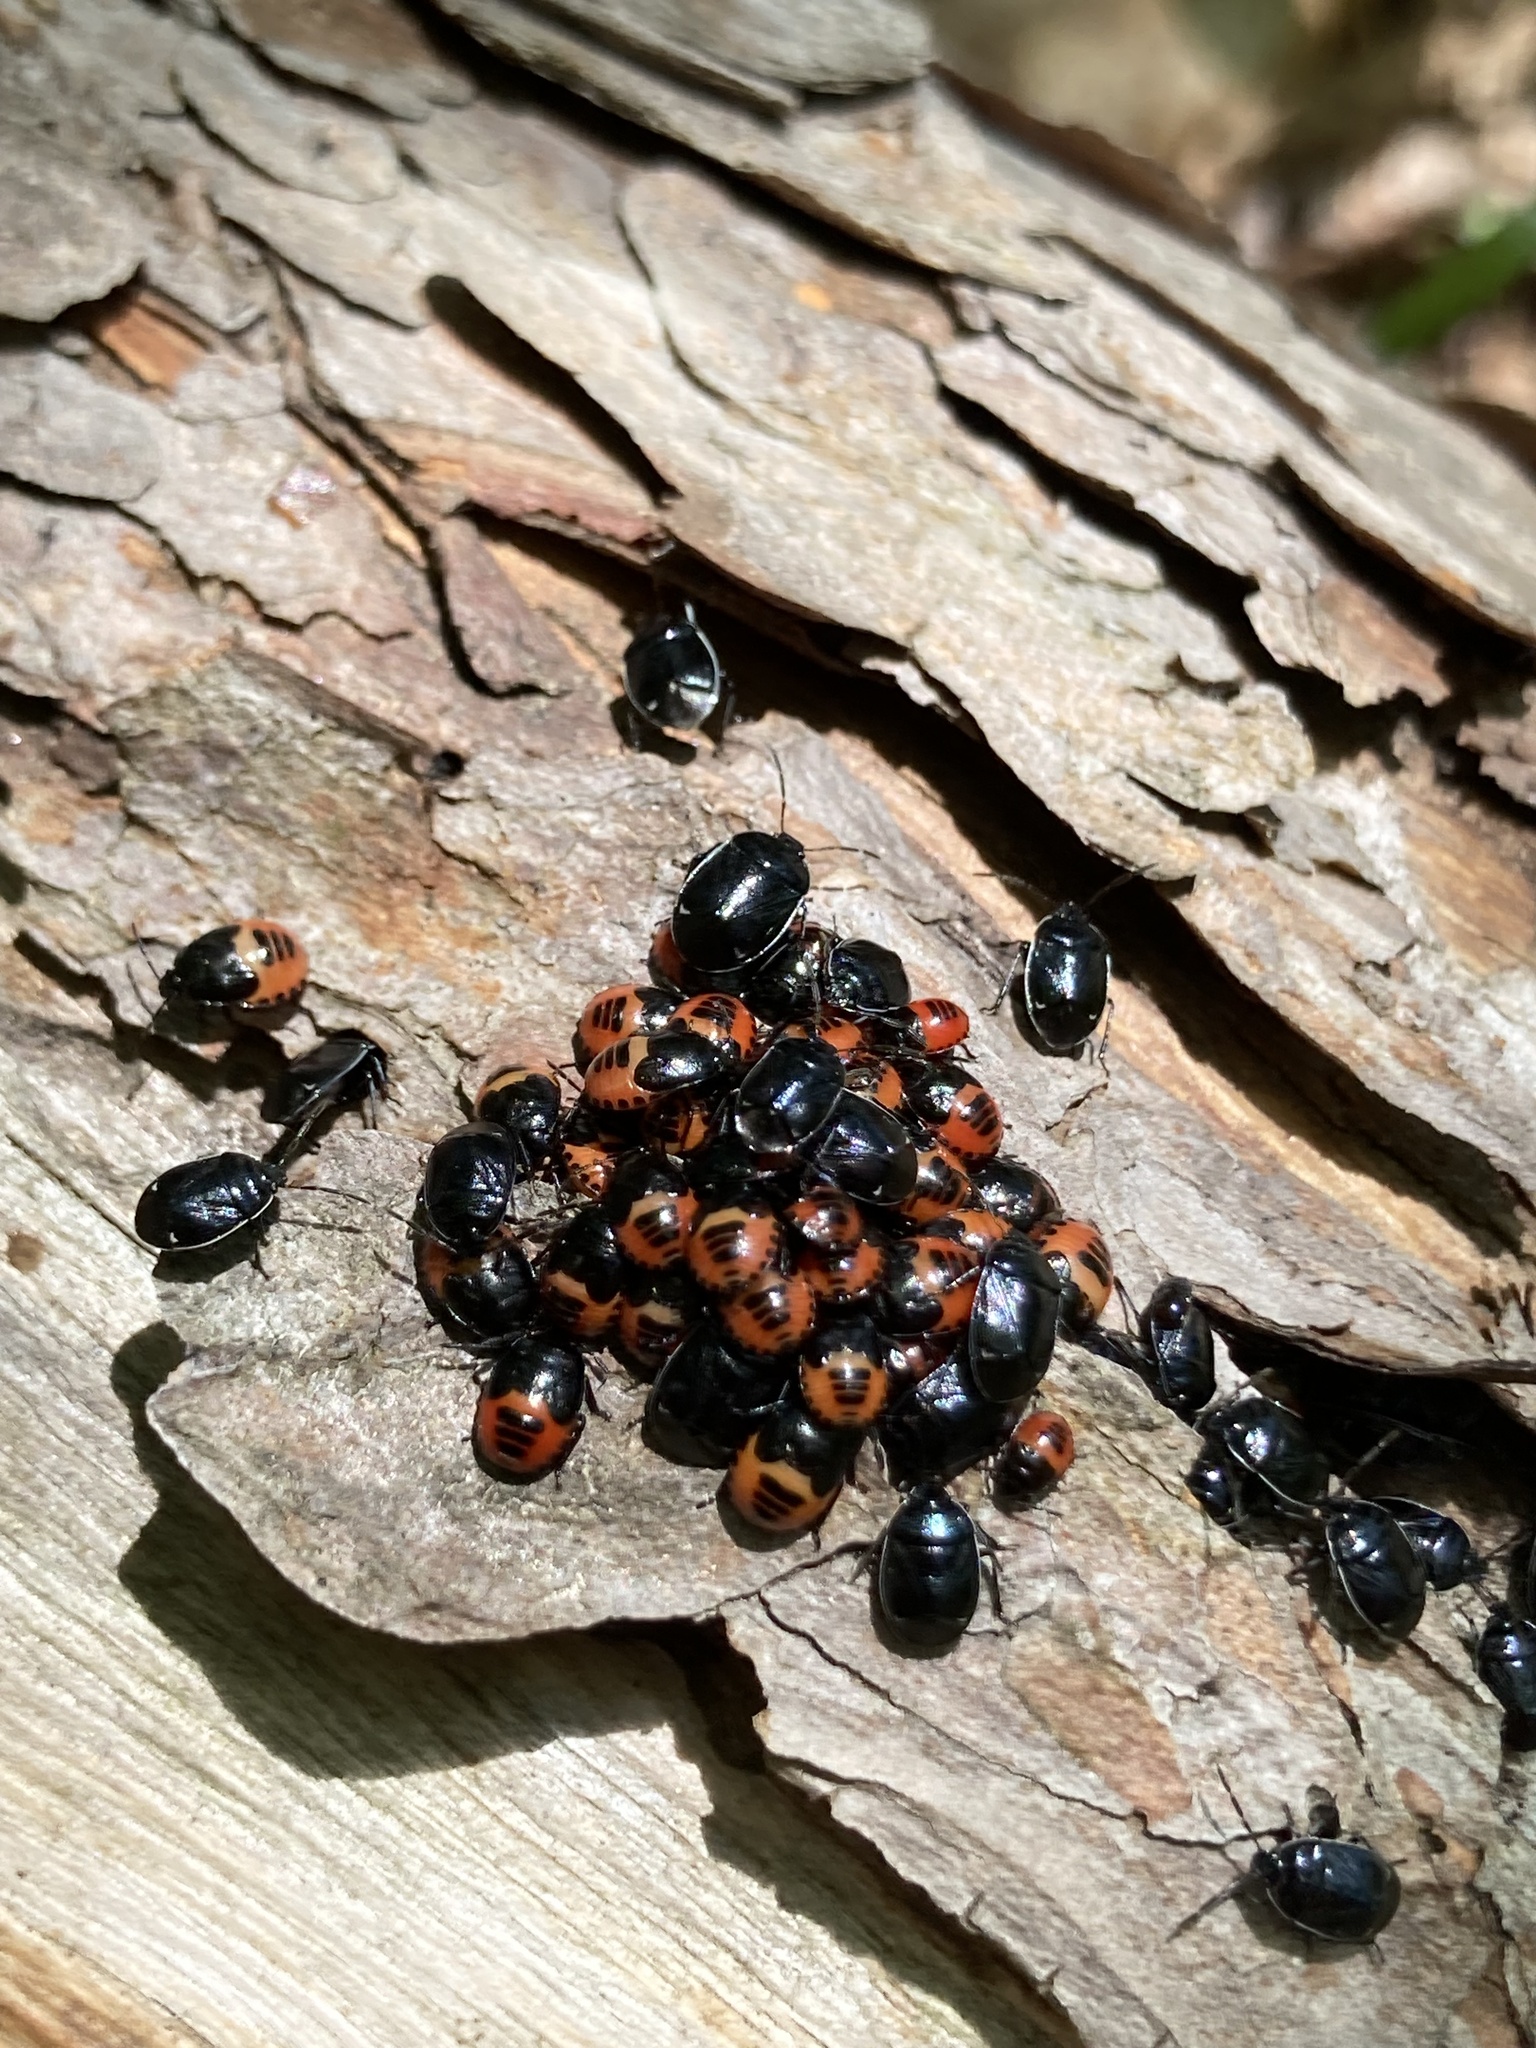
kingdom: Animalia
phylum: Arthropoda
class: Insecta
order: Hemiptera
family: Cydnidae
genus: Sehirus
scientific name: Sehirus cinctus
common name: White-margined burrower bug
